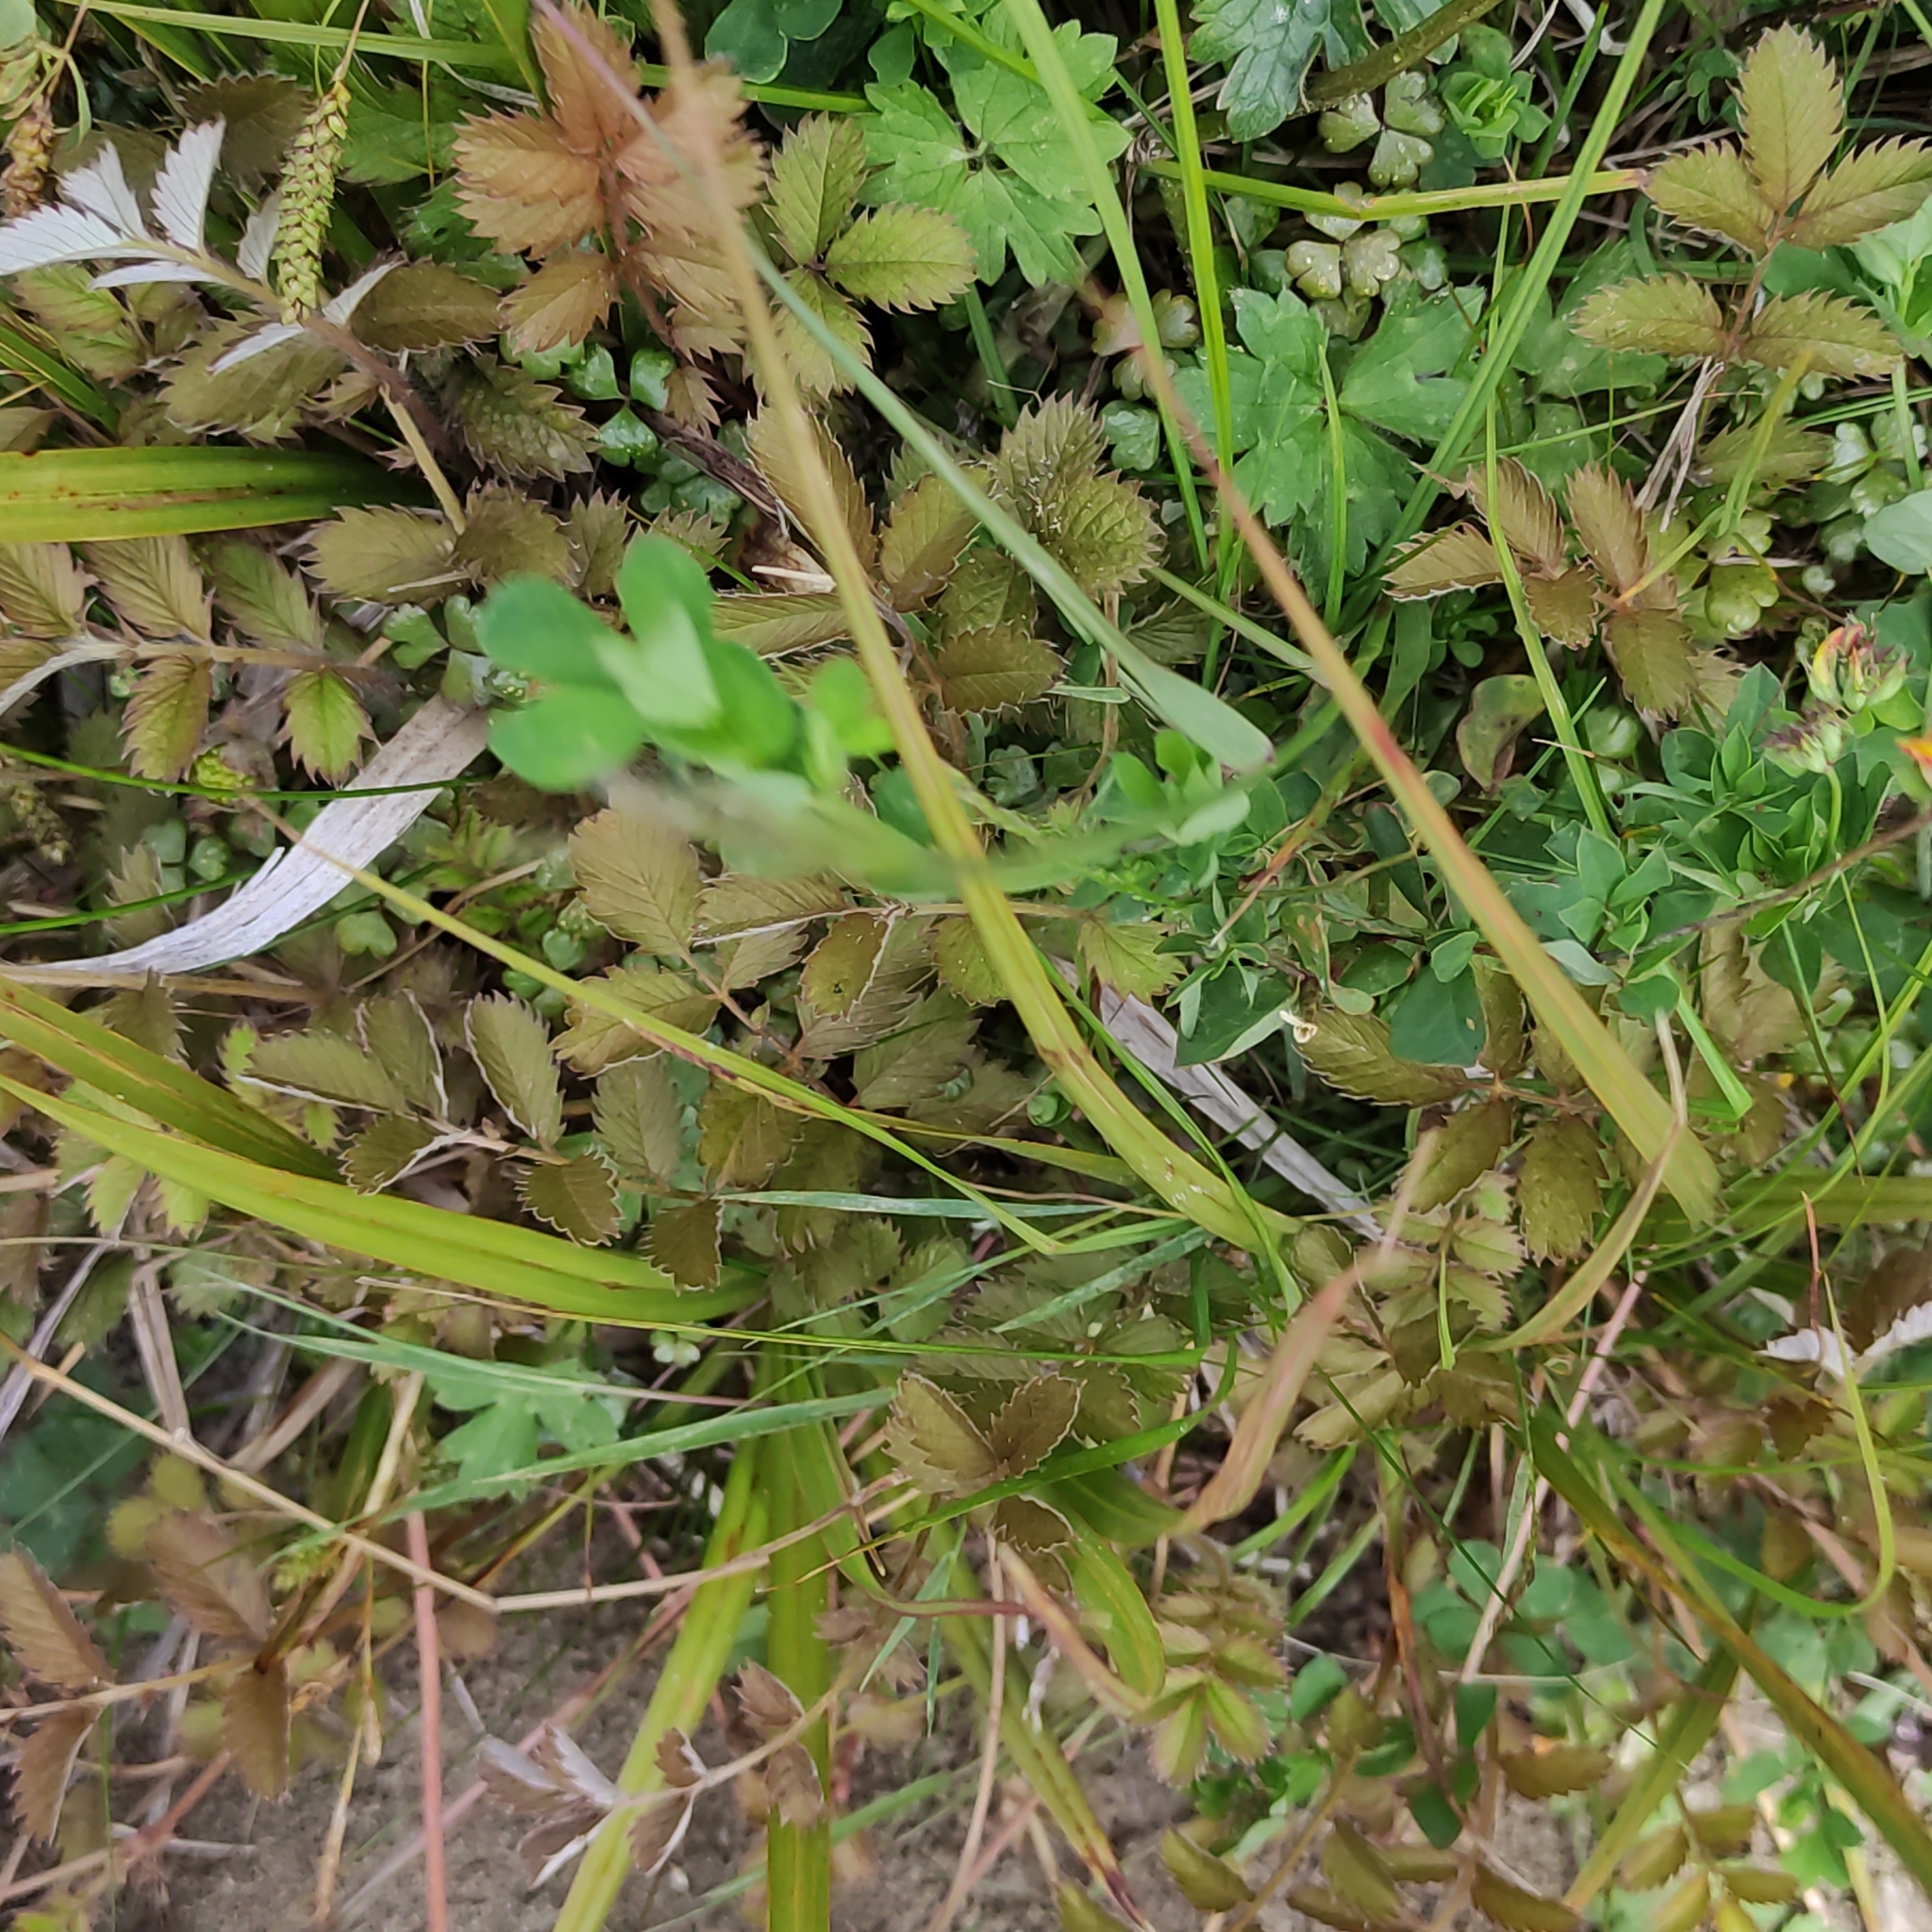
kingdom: Plantae
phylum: Tracheophyta
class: Magnoliopsida
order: Rosales
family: Rosaceae
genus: Argentina
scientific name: Argentina anserinoides
